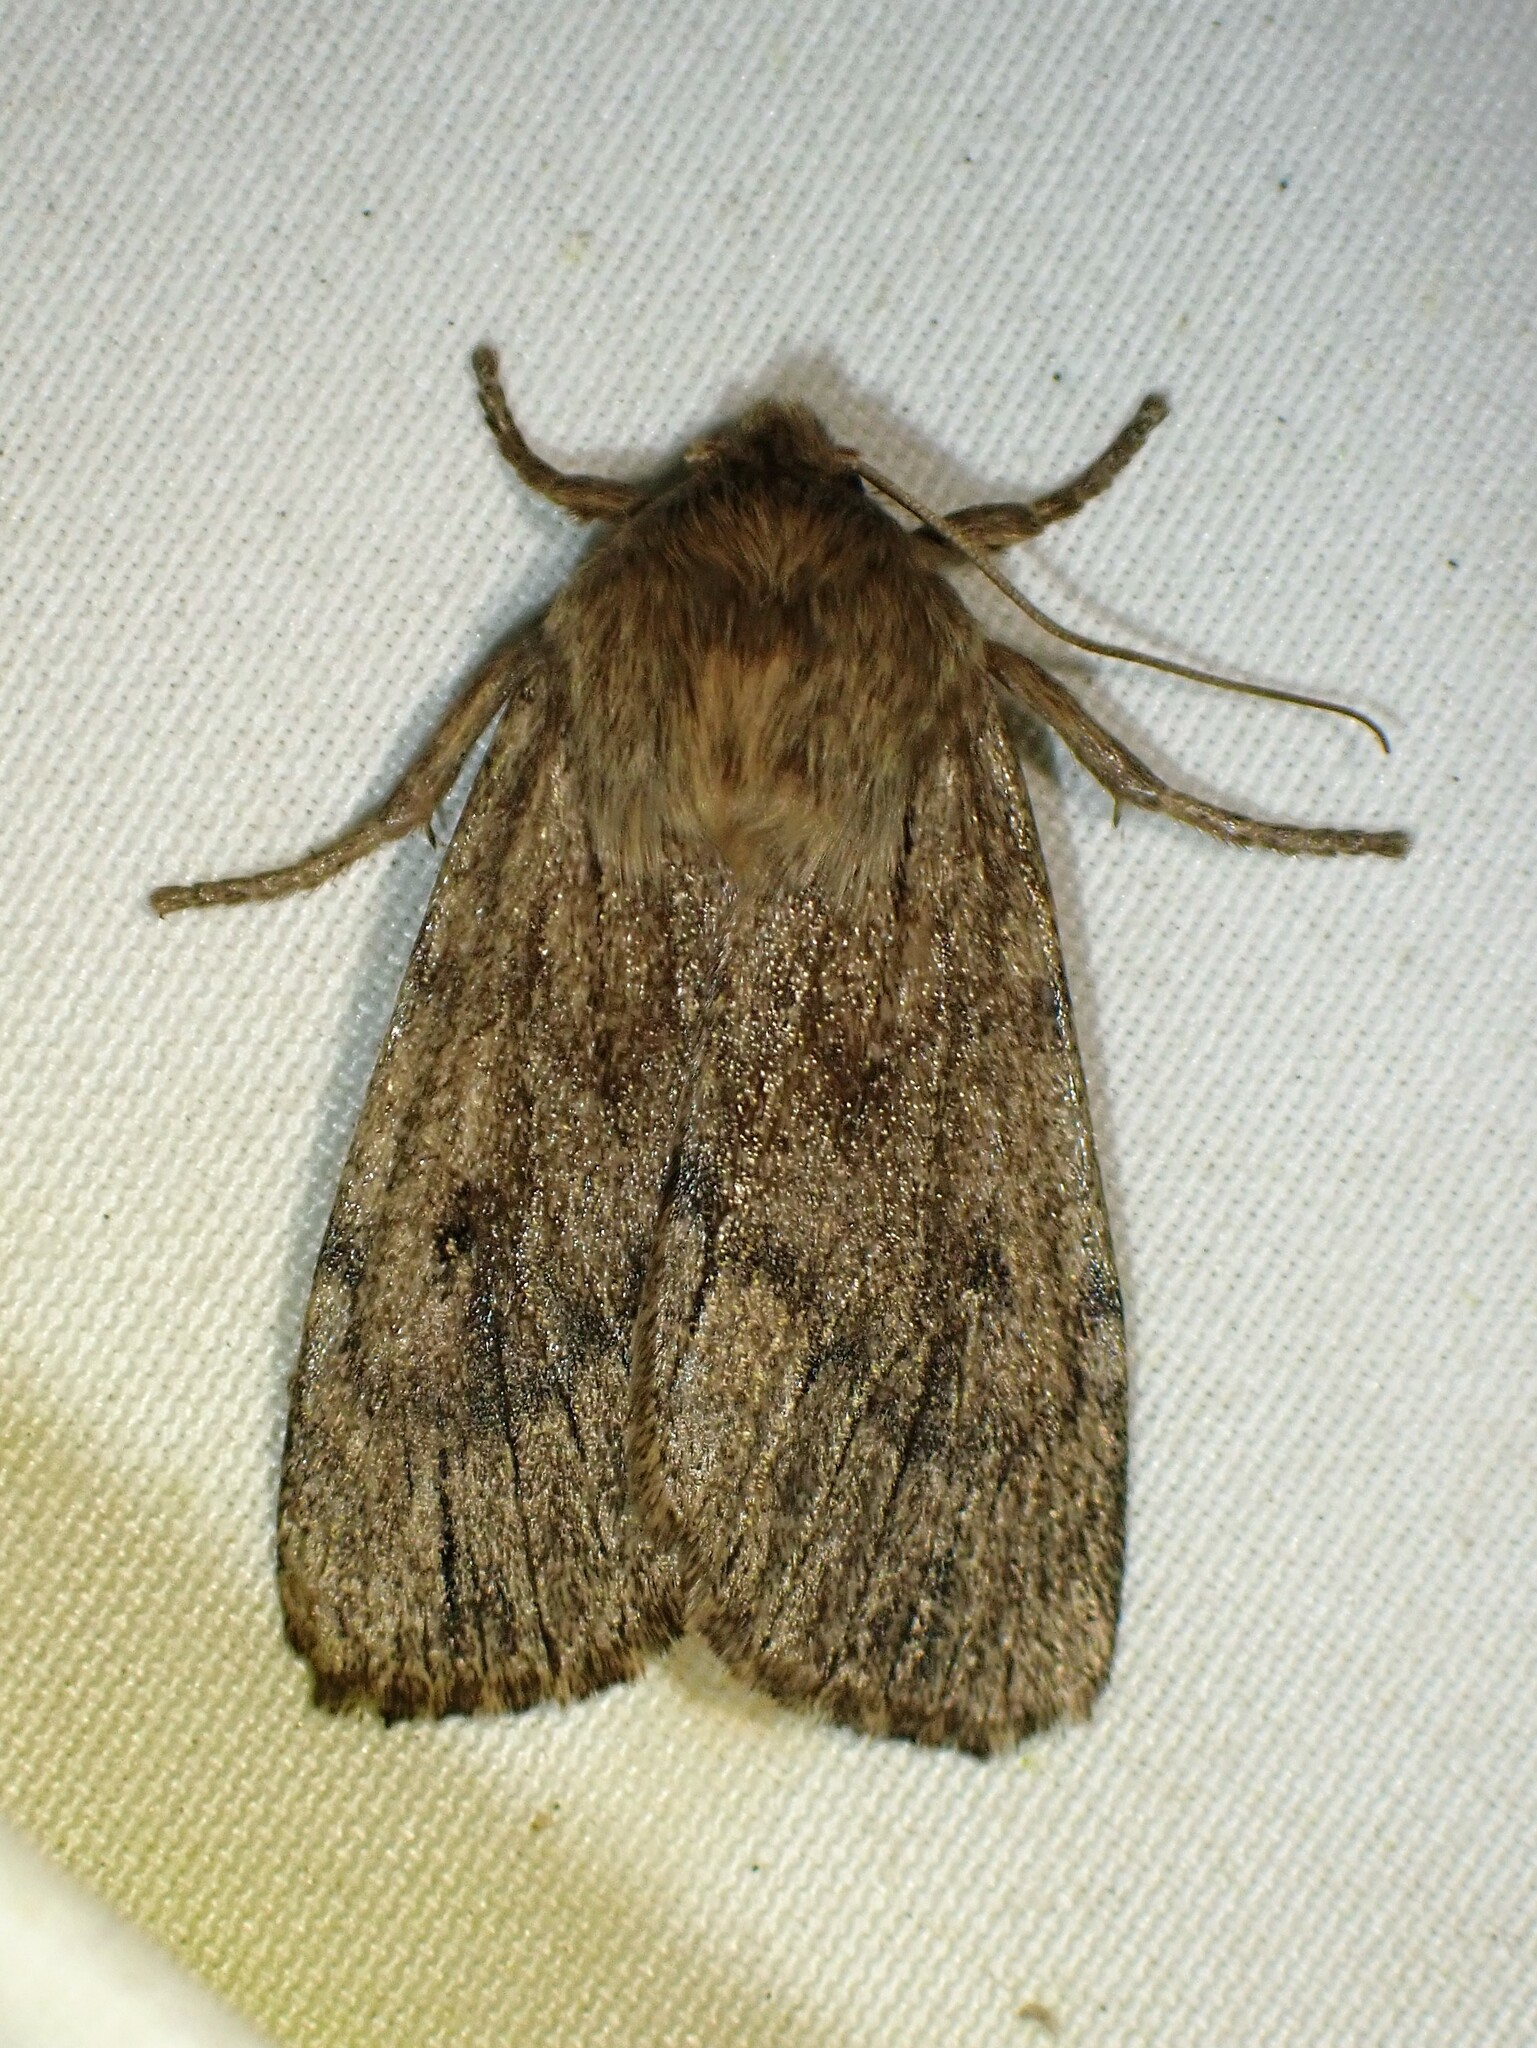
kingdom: Animalia
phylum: Arthropoda
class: Insecta
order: Lepidoptera
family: Noctuidae
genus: Ufeus
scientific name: Ufeus satyricus
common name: Brown satyr moth
